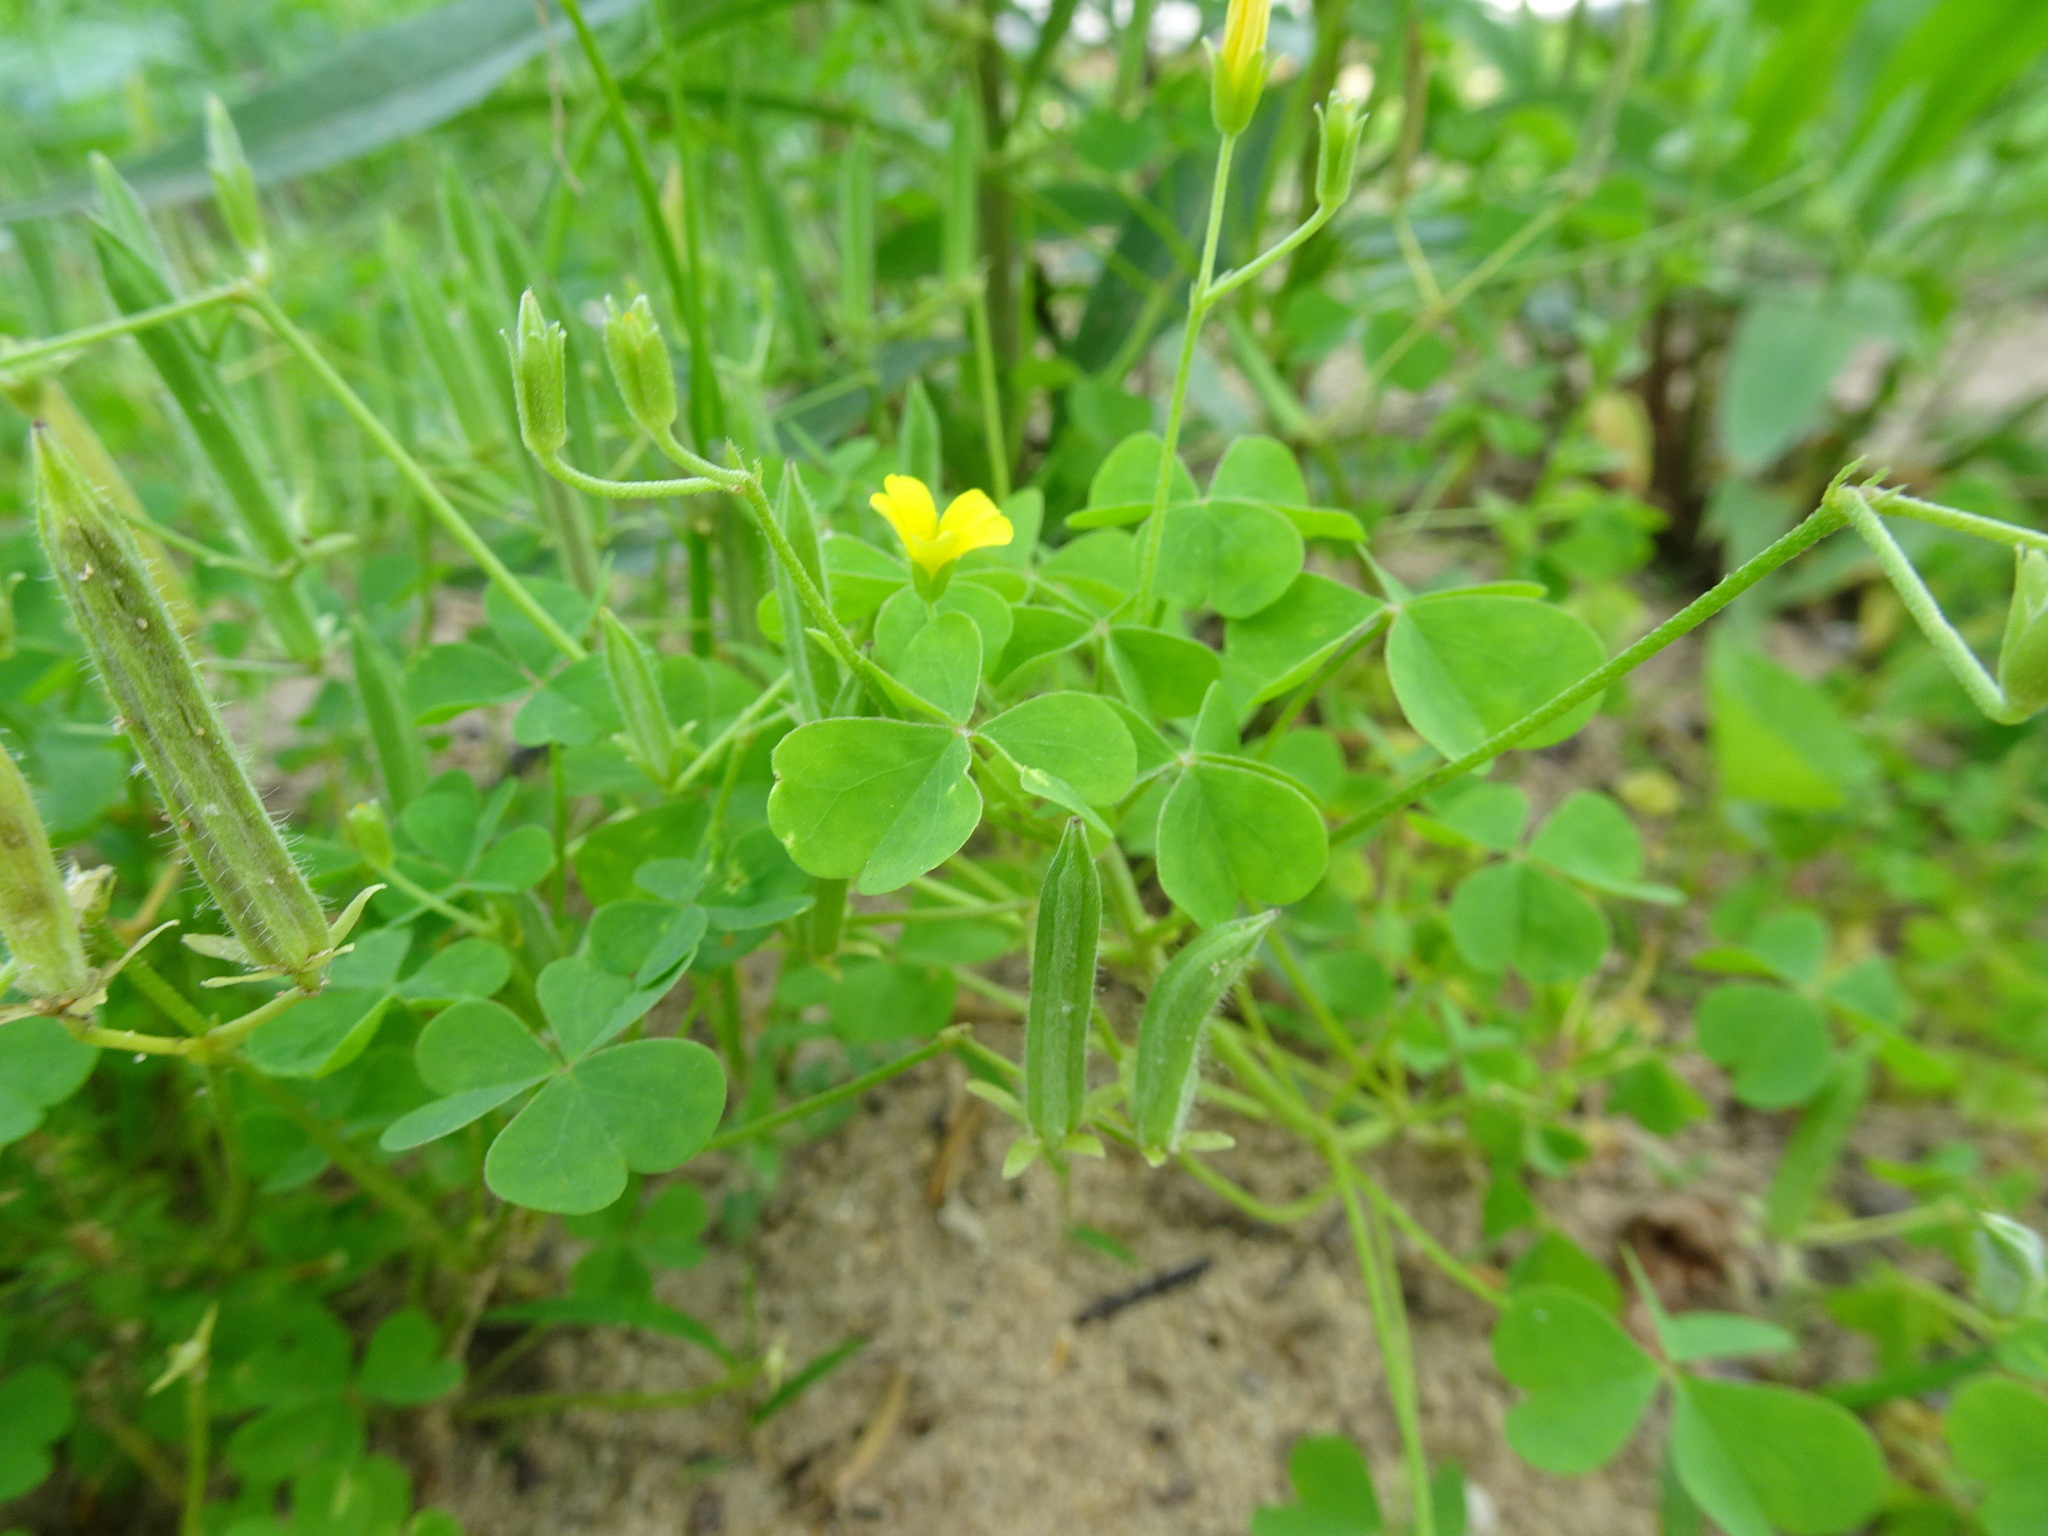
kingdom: Plantae
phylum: Tracheophyta
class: Magnoliopsida
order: Oxalidales
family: Oxalidaceae
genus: Oxalis
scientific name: Oxalis dillenii
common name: Sussex yellow-sorrel
